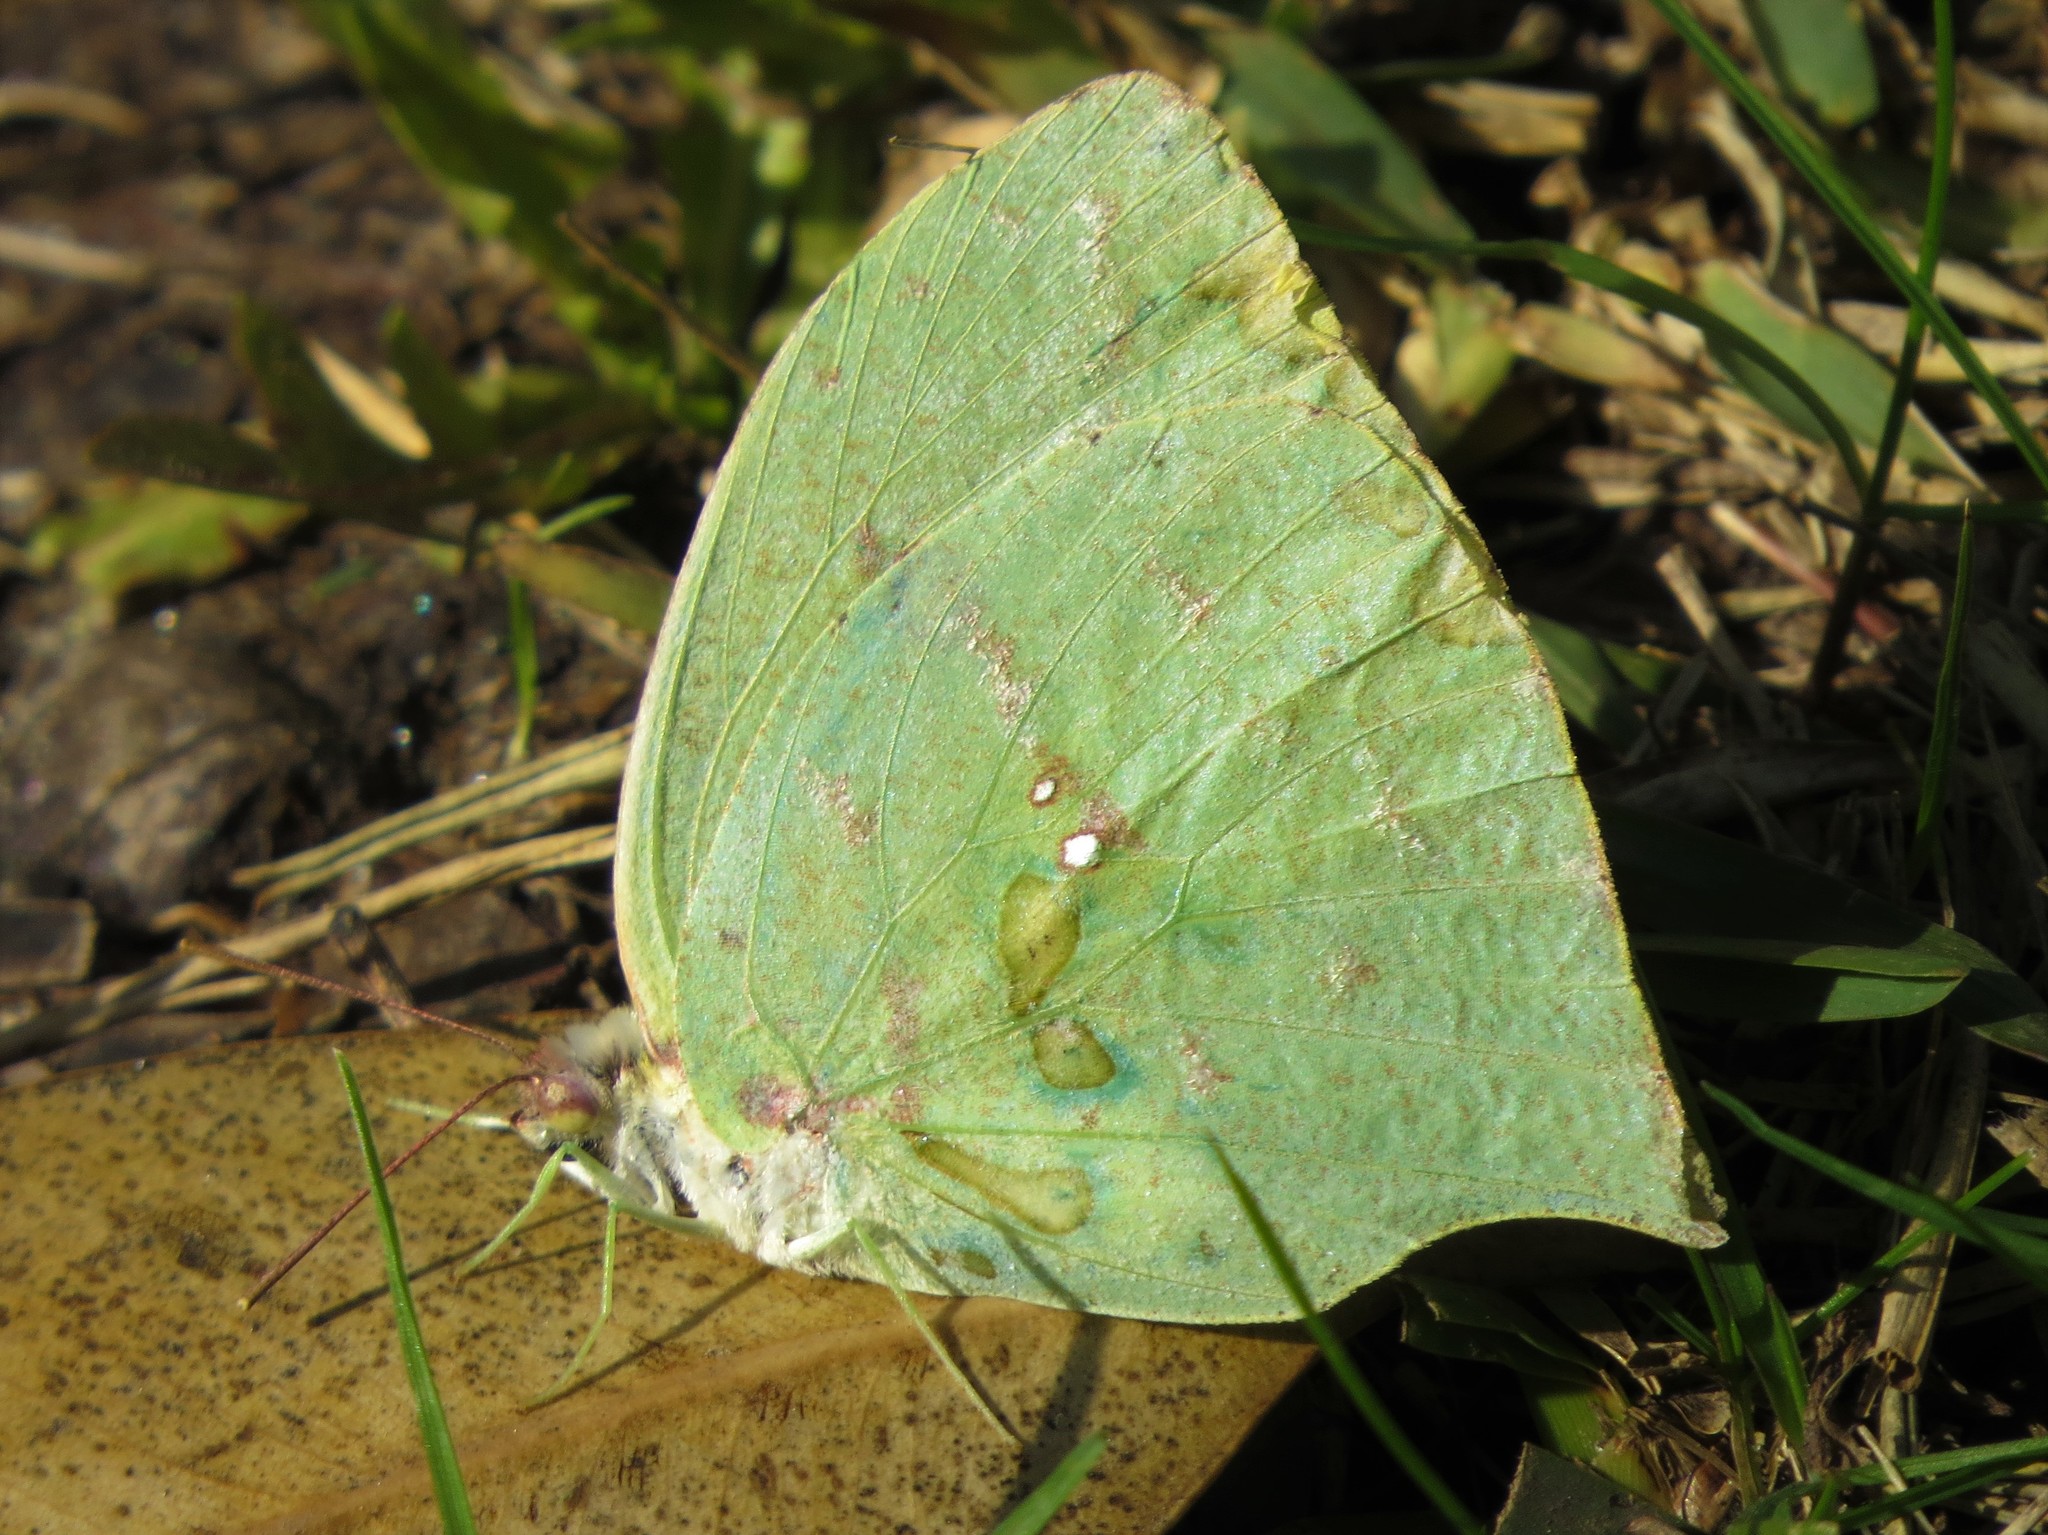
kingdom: Animalia
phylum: Arthropoda
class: Insecta
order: Lepidoptera
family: Pieridae
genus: Phoebis
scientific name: Phoebis neocypris
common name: Tailed sulphur
